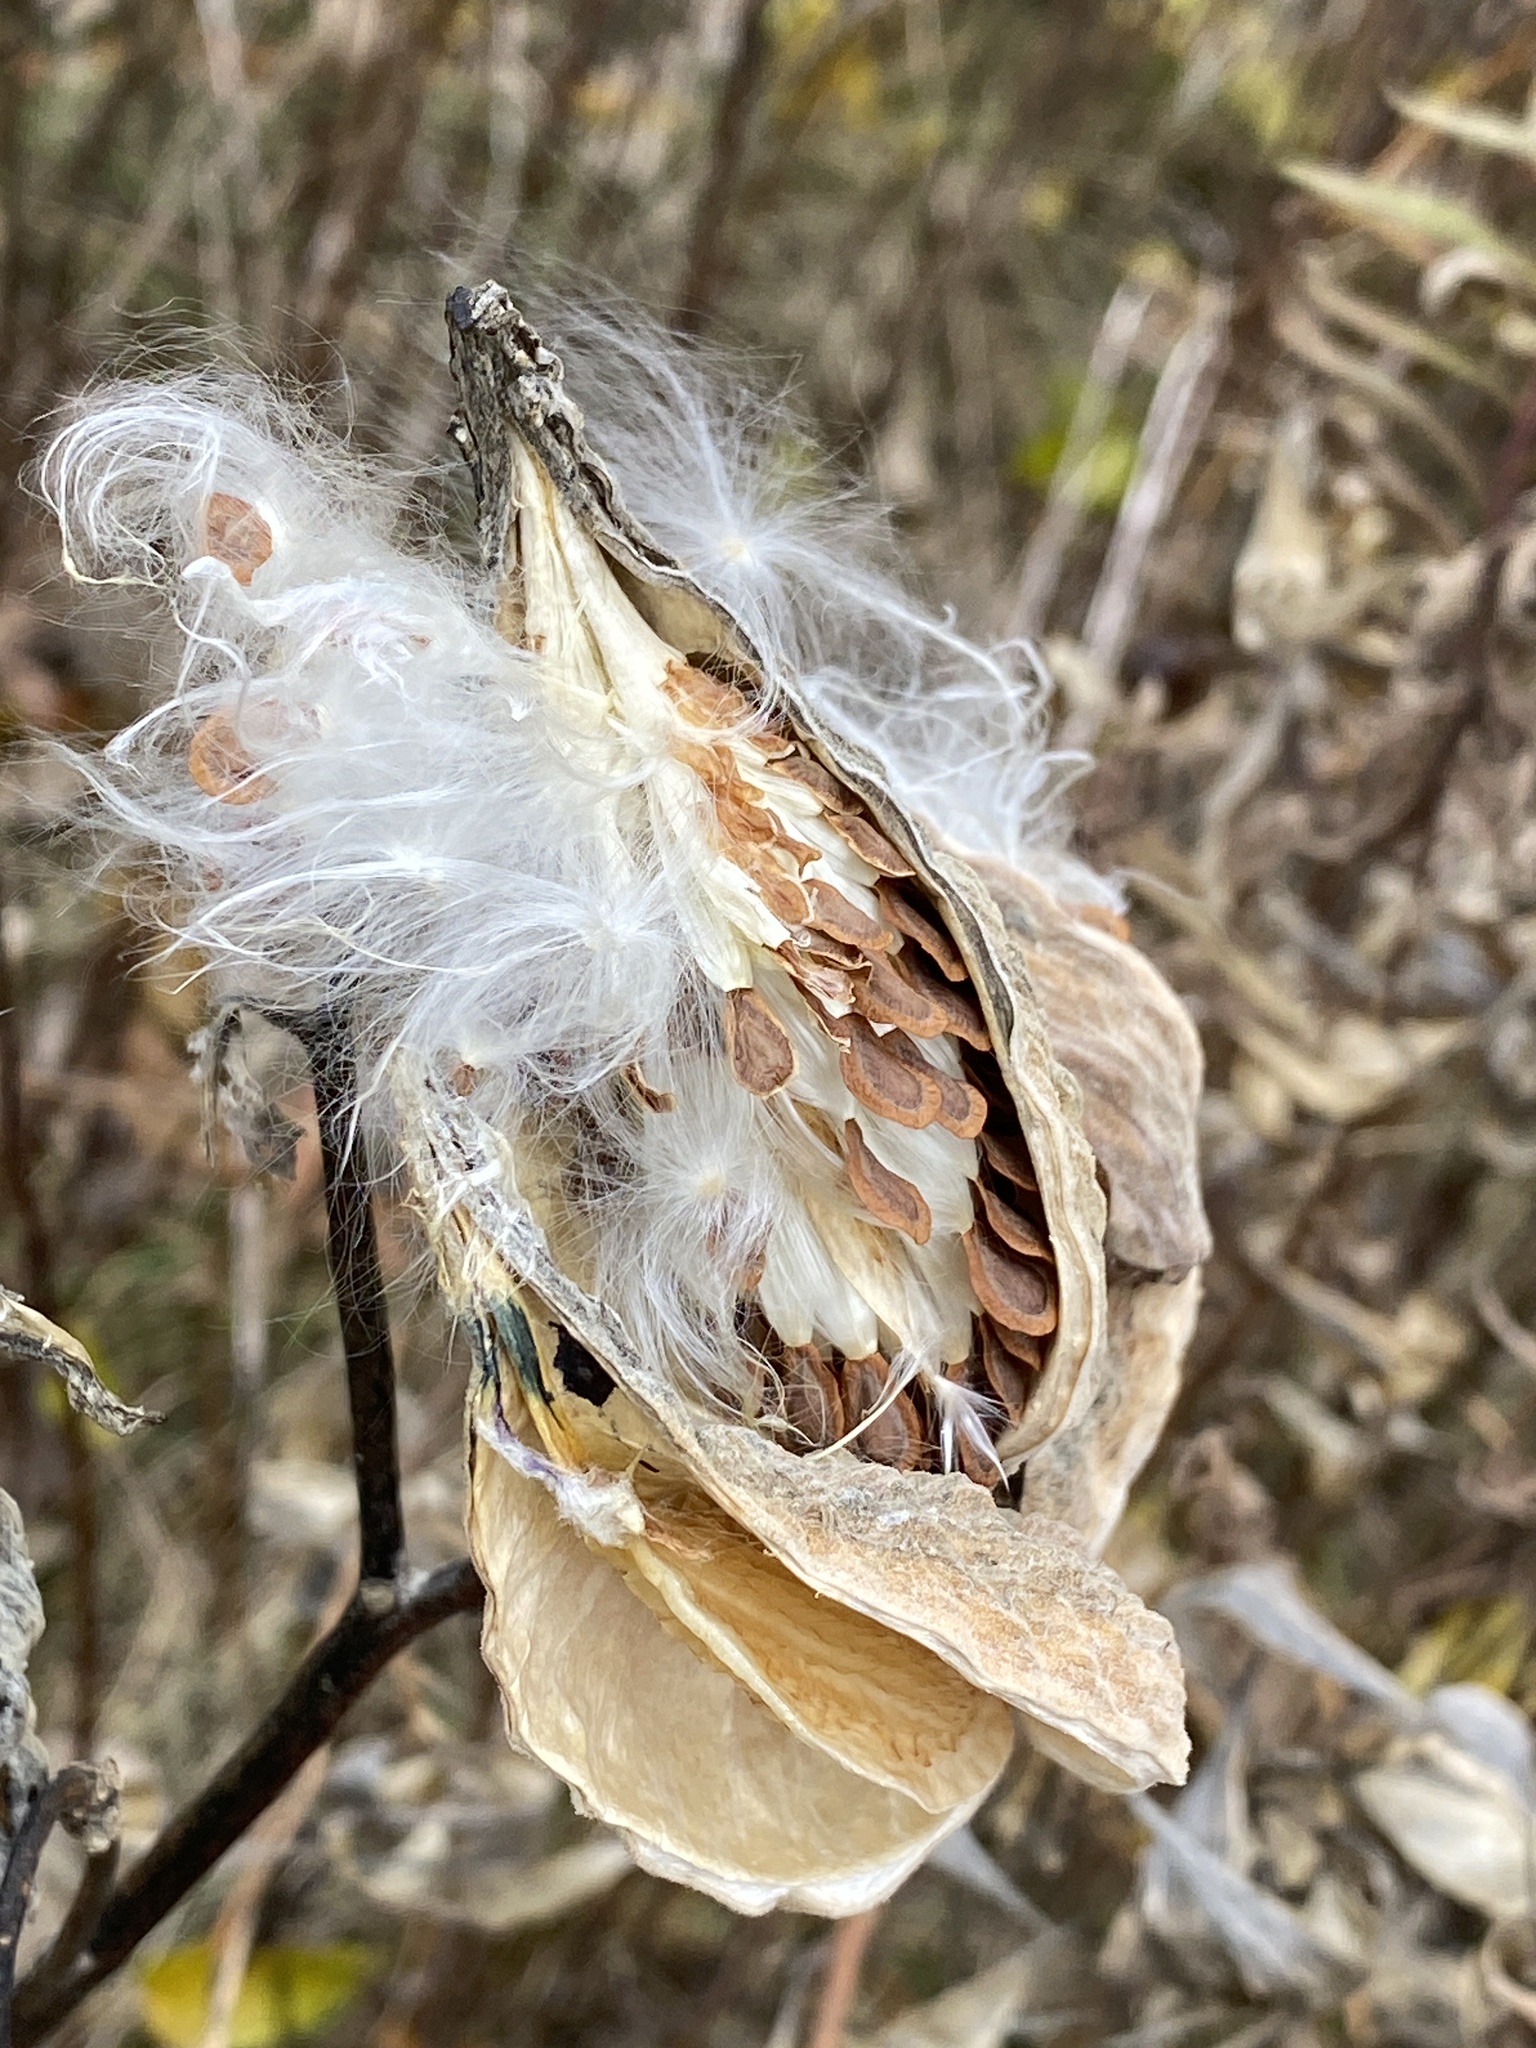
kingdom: Plantae
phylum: Tracheophyta
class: Magnoliopsida
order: Gentianales
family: Apocynaceae
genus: Asclepias
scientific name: Asclepias syriaca
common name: Common milkweed
